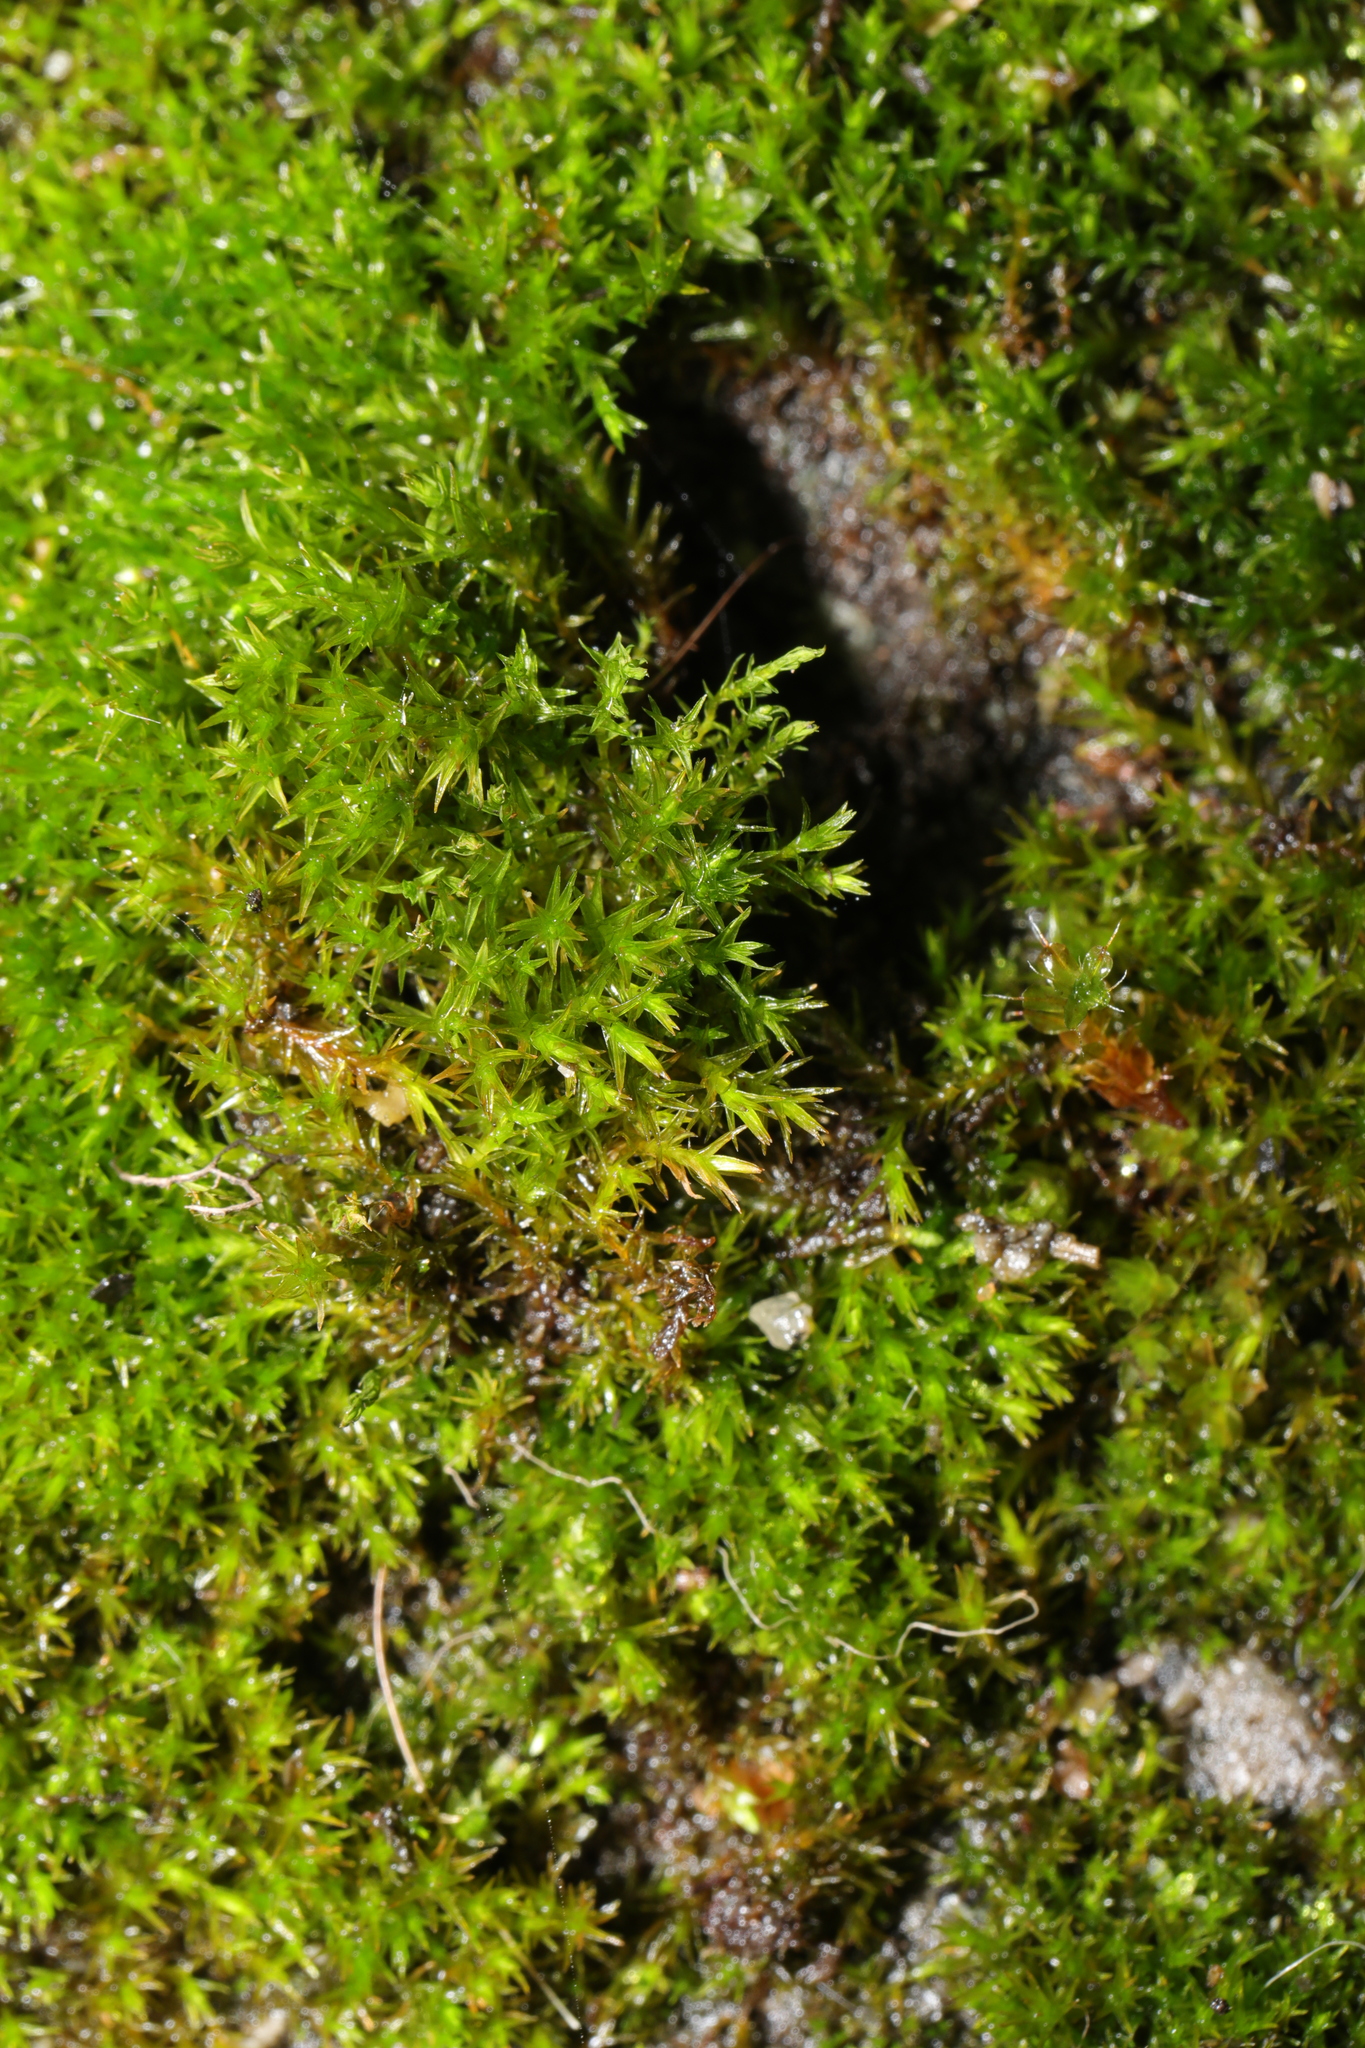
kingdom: Plantae
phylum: Bryophyta
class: Bryopsida
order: Dicranales
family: Ditrichaceae
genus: Ceratodon
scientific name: Ceratodon purpureus
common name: Redshank
